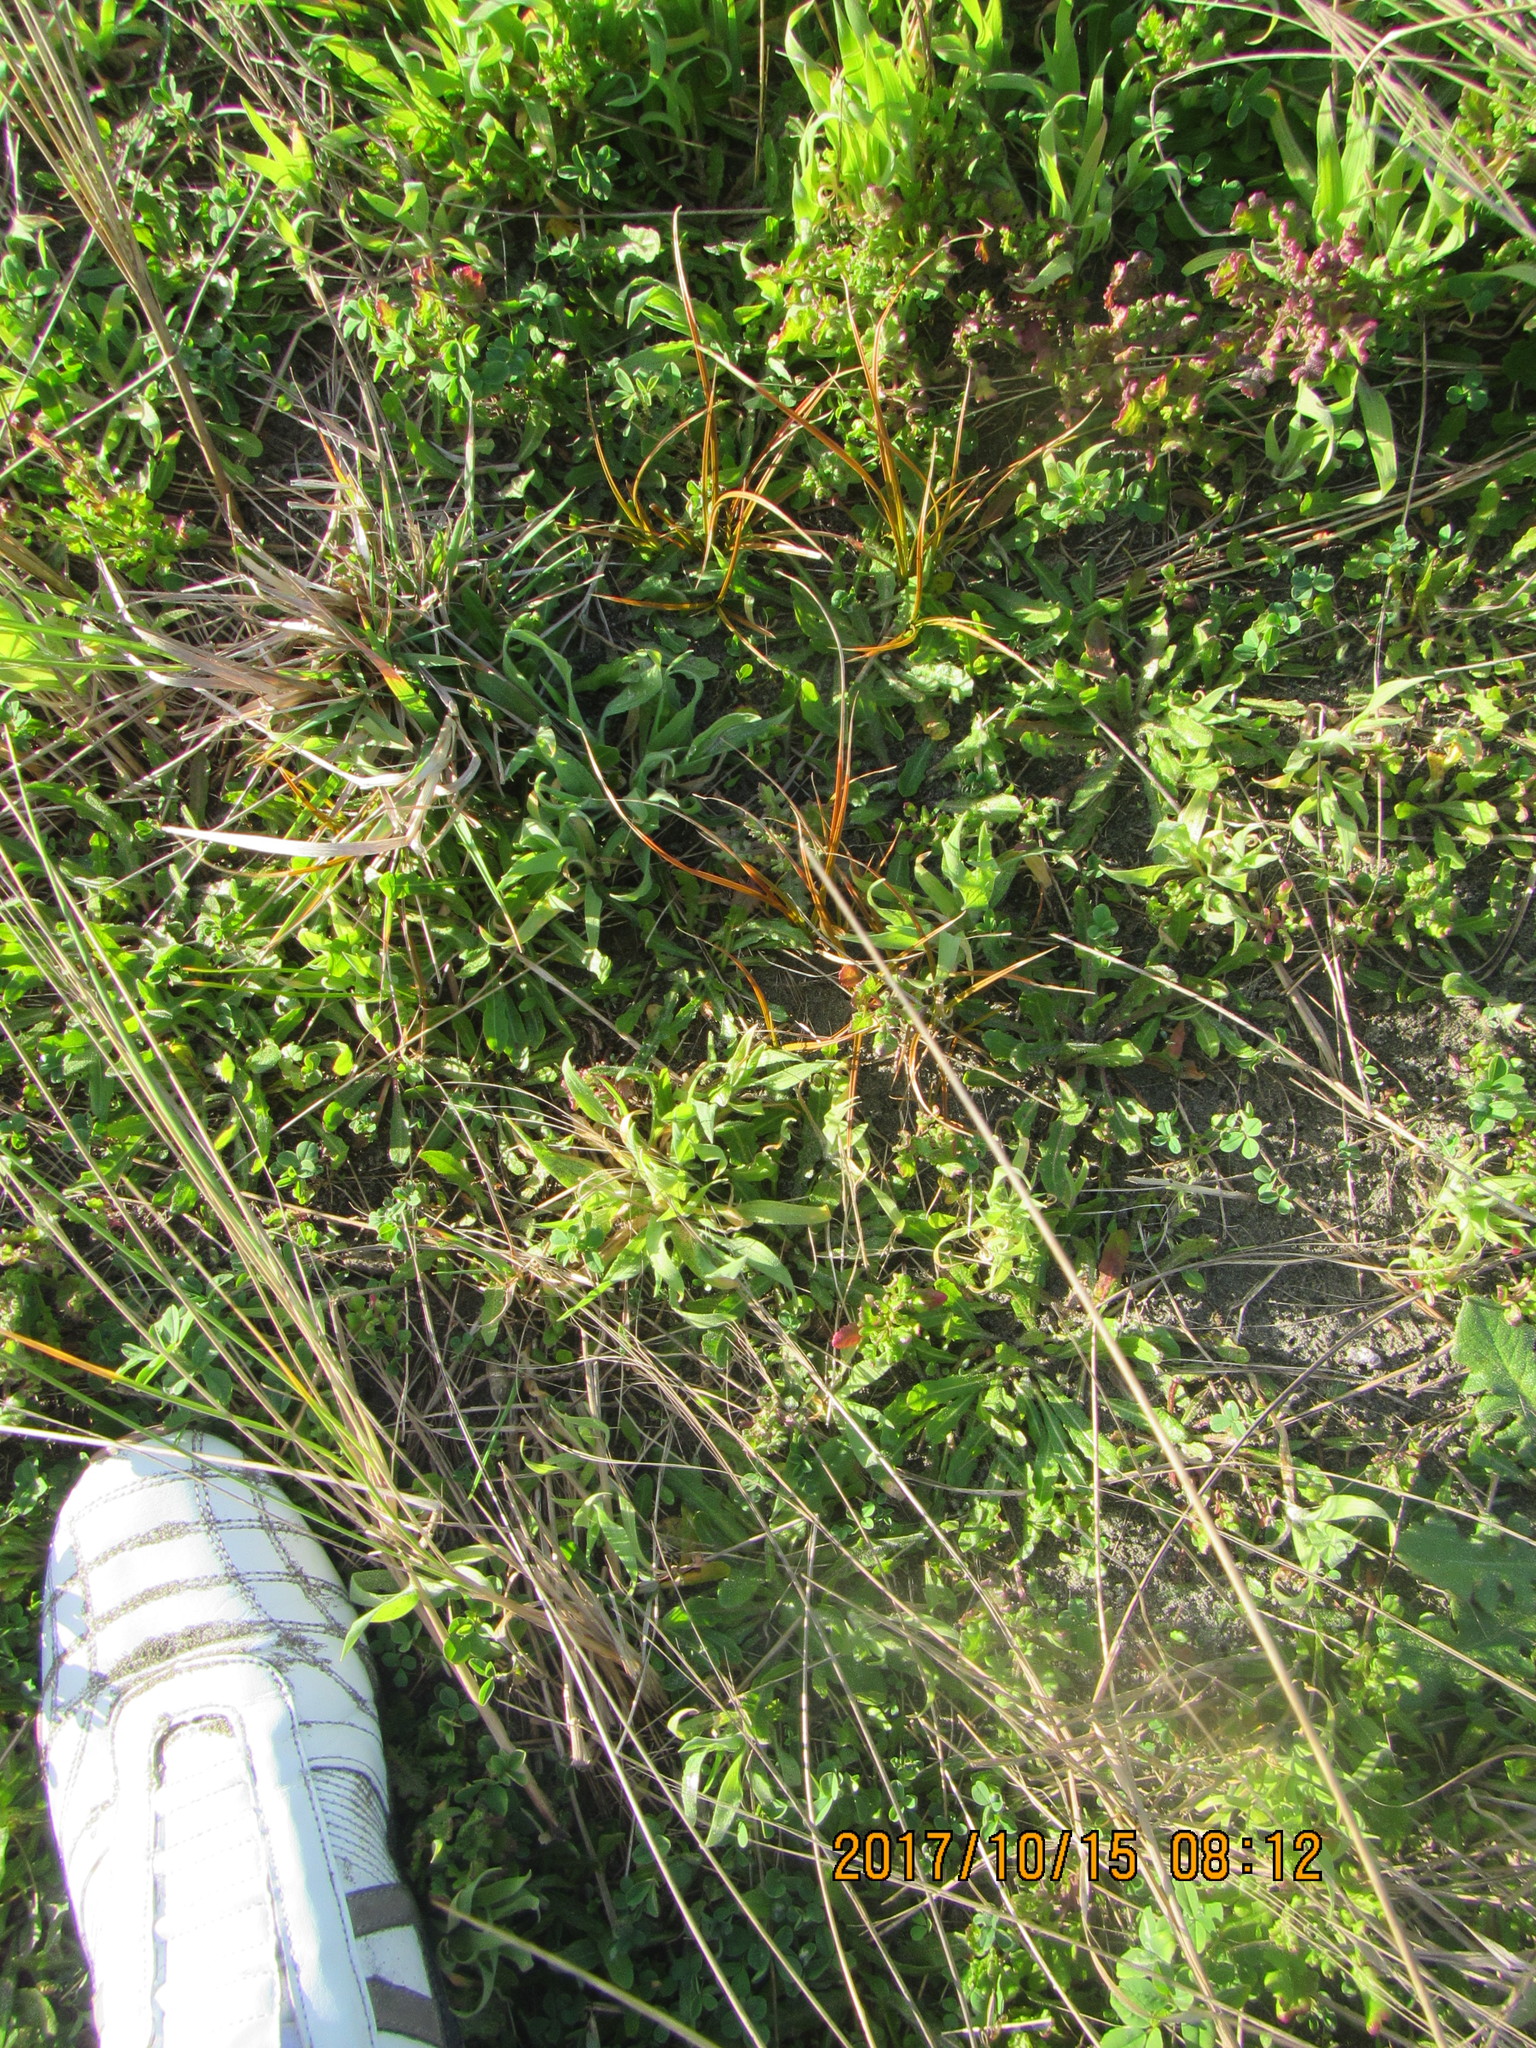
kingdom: Plantae
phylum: Tracheophyta
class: Liliopsida
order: Poales
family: Cyperaceae
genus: Carex
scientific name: Carex testacea
